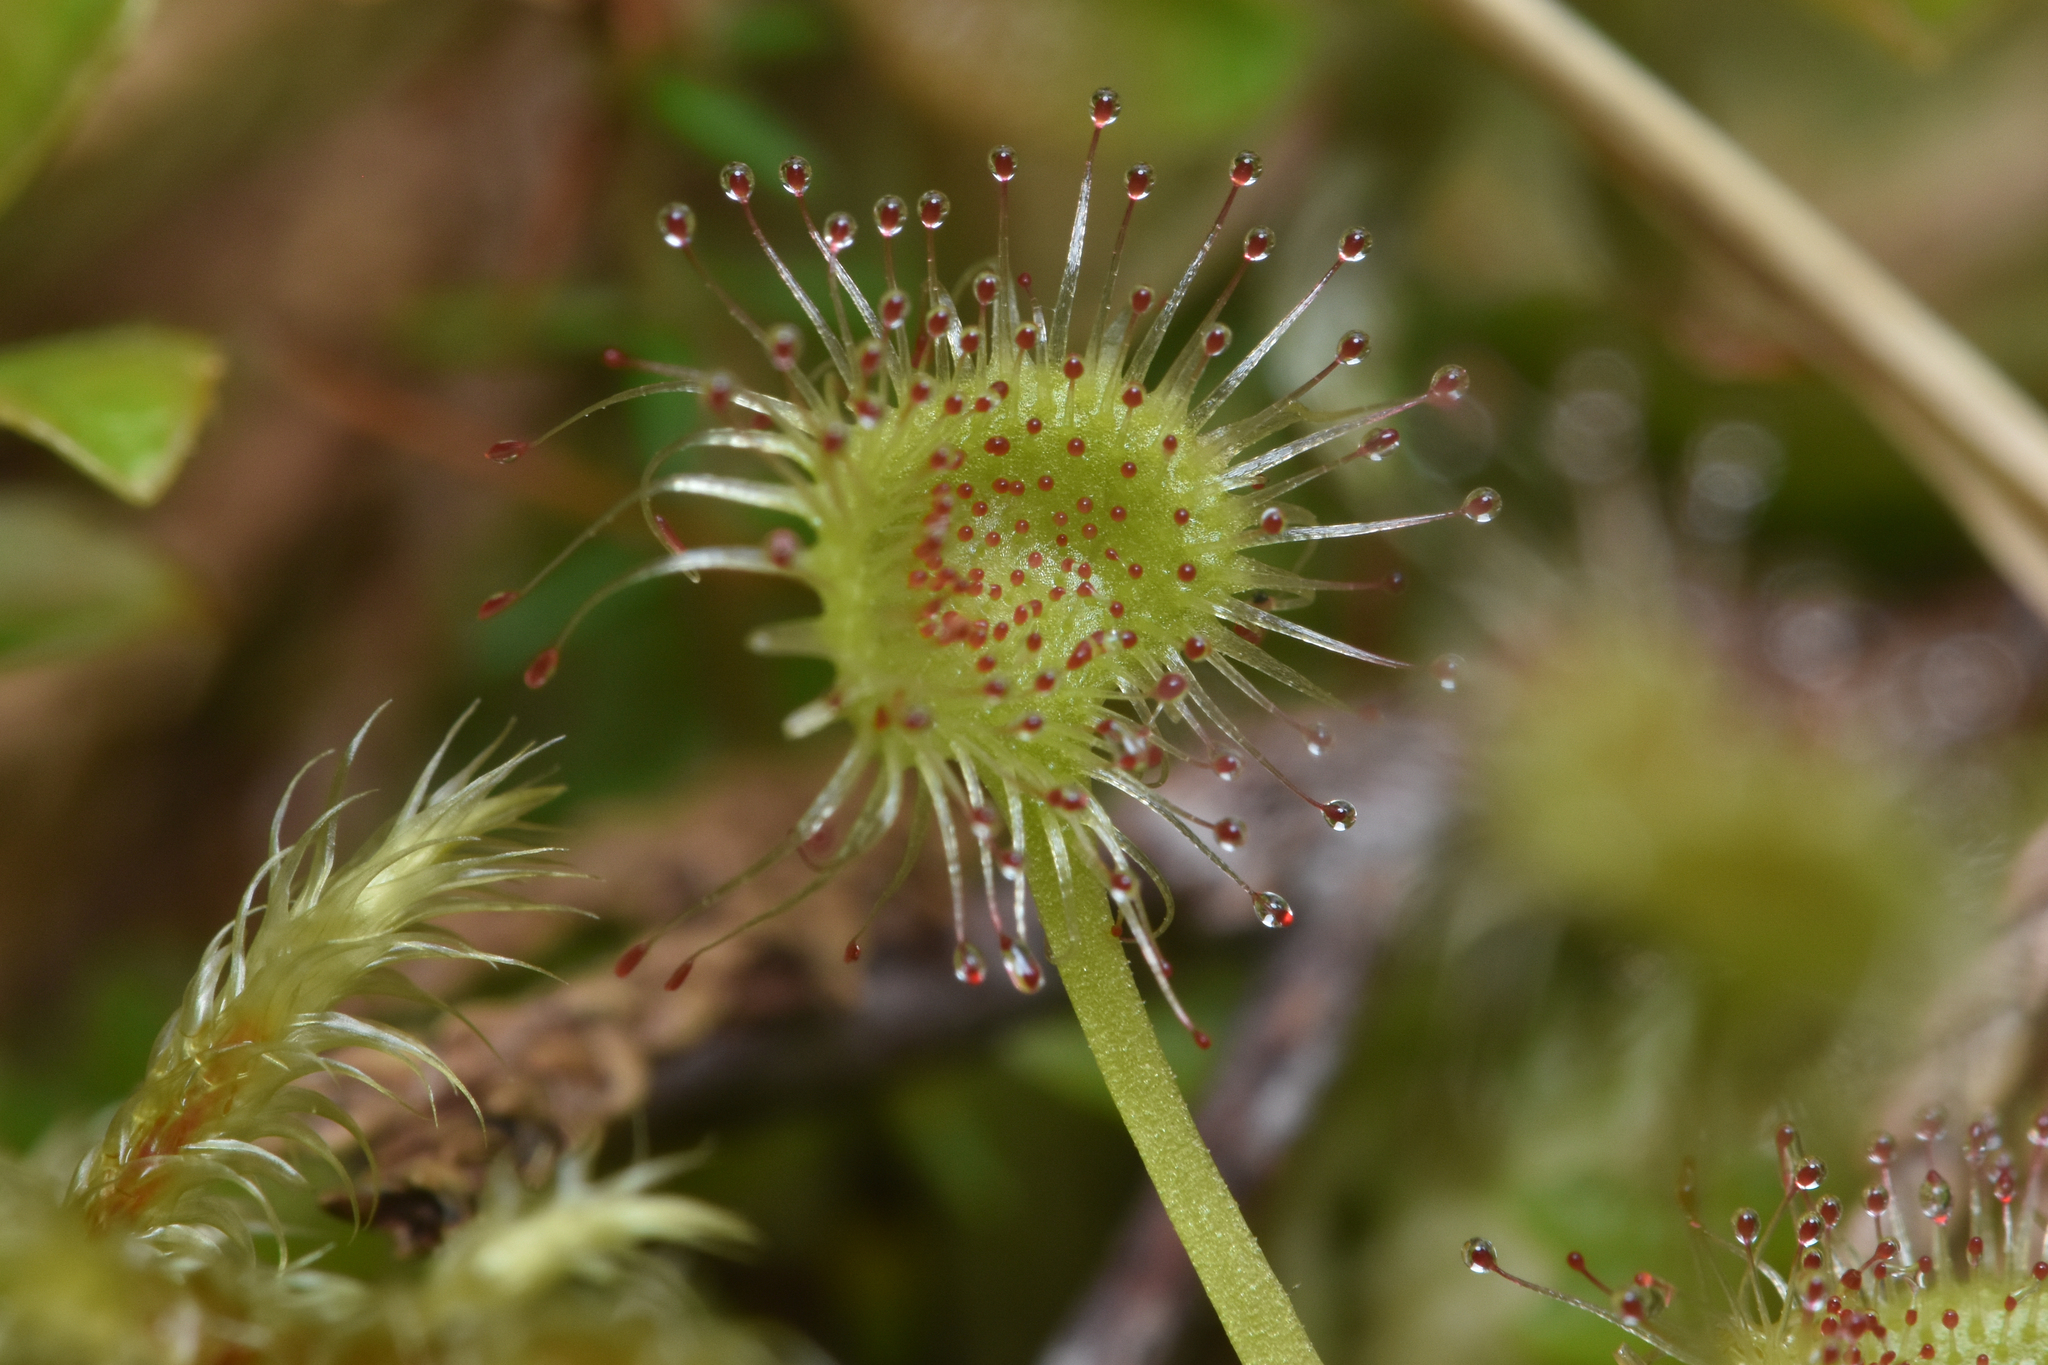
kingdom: Plantae
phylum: Tracheophyta
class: Magnoliopsida
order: Caryophyllales
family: Droseraceae
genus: Drosera
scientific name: Drosera rotundifolia
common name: Round-leaved sundew
